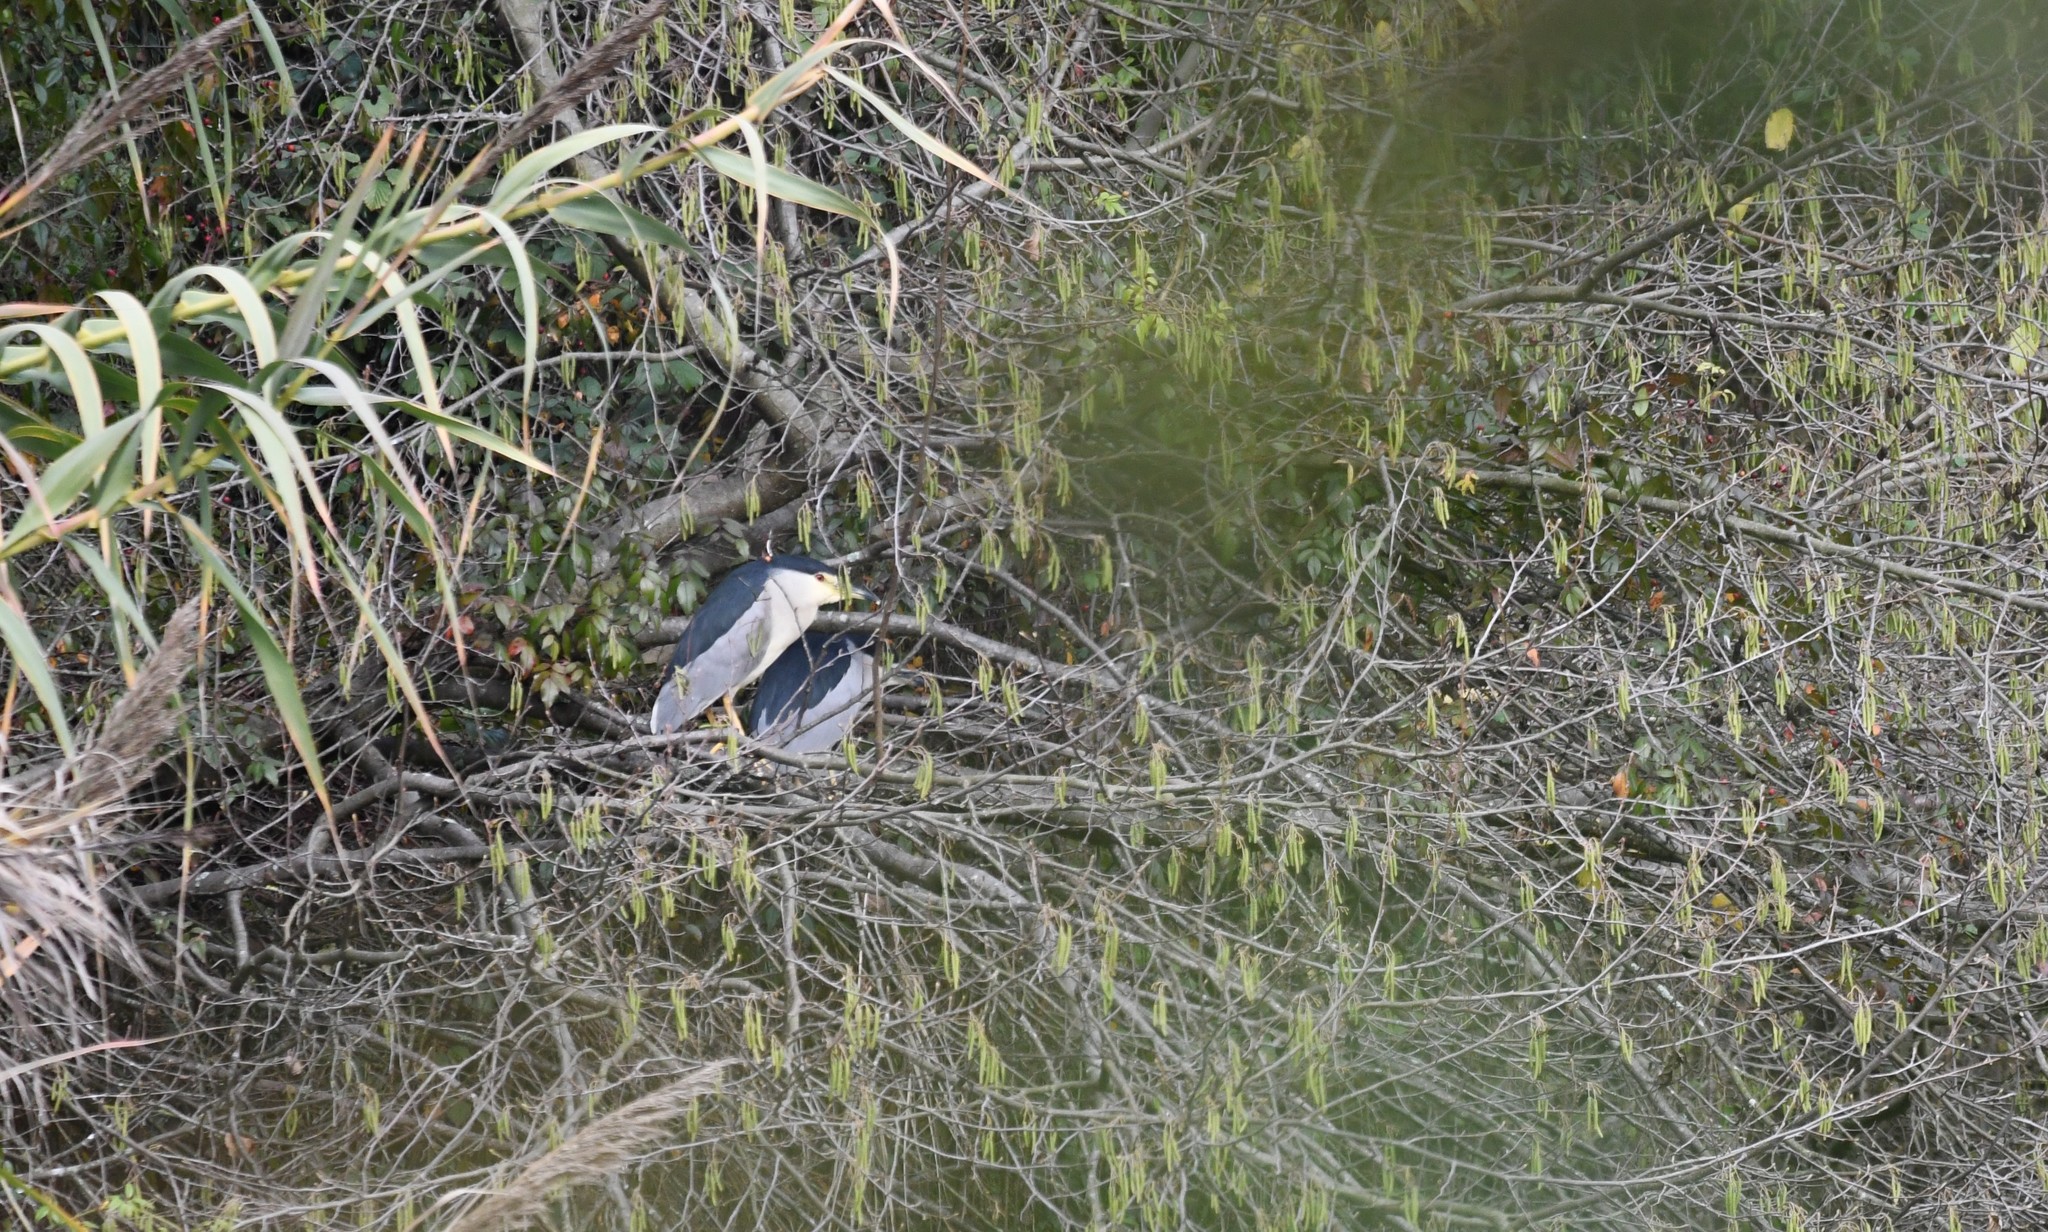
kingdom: Animalia
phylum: Chordata
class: Aves
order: Pelecaniformes
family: Ardeidae
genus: Nycticorax
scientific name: Nycticorax nycticorax
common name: Black-crowned night heron
